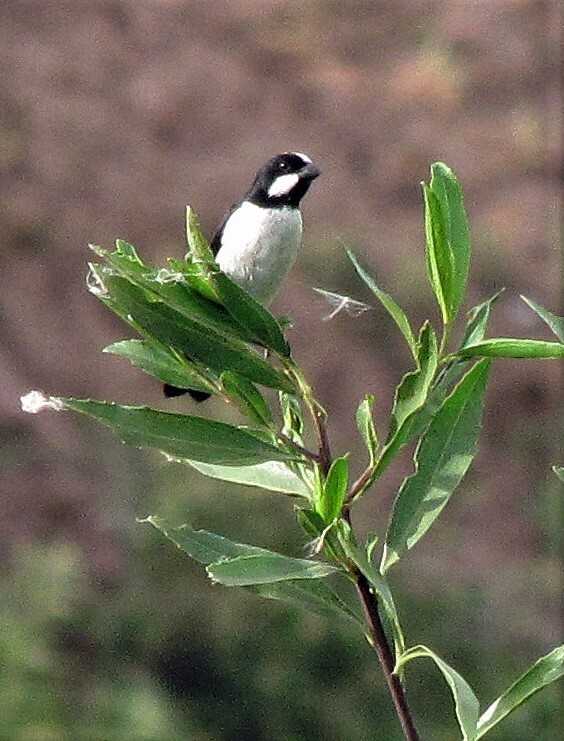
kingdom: Animalia
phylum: Chordata
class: Aves
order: Passeriformes
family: Thraupidae
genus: Sporophila
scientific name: Sporophila lineola
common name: Lined seedeater
